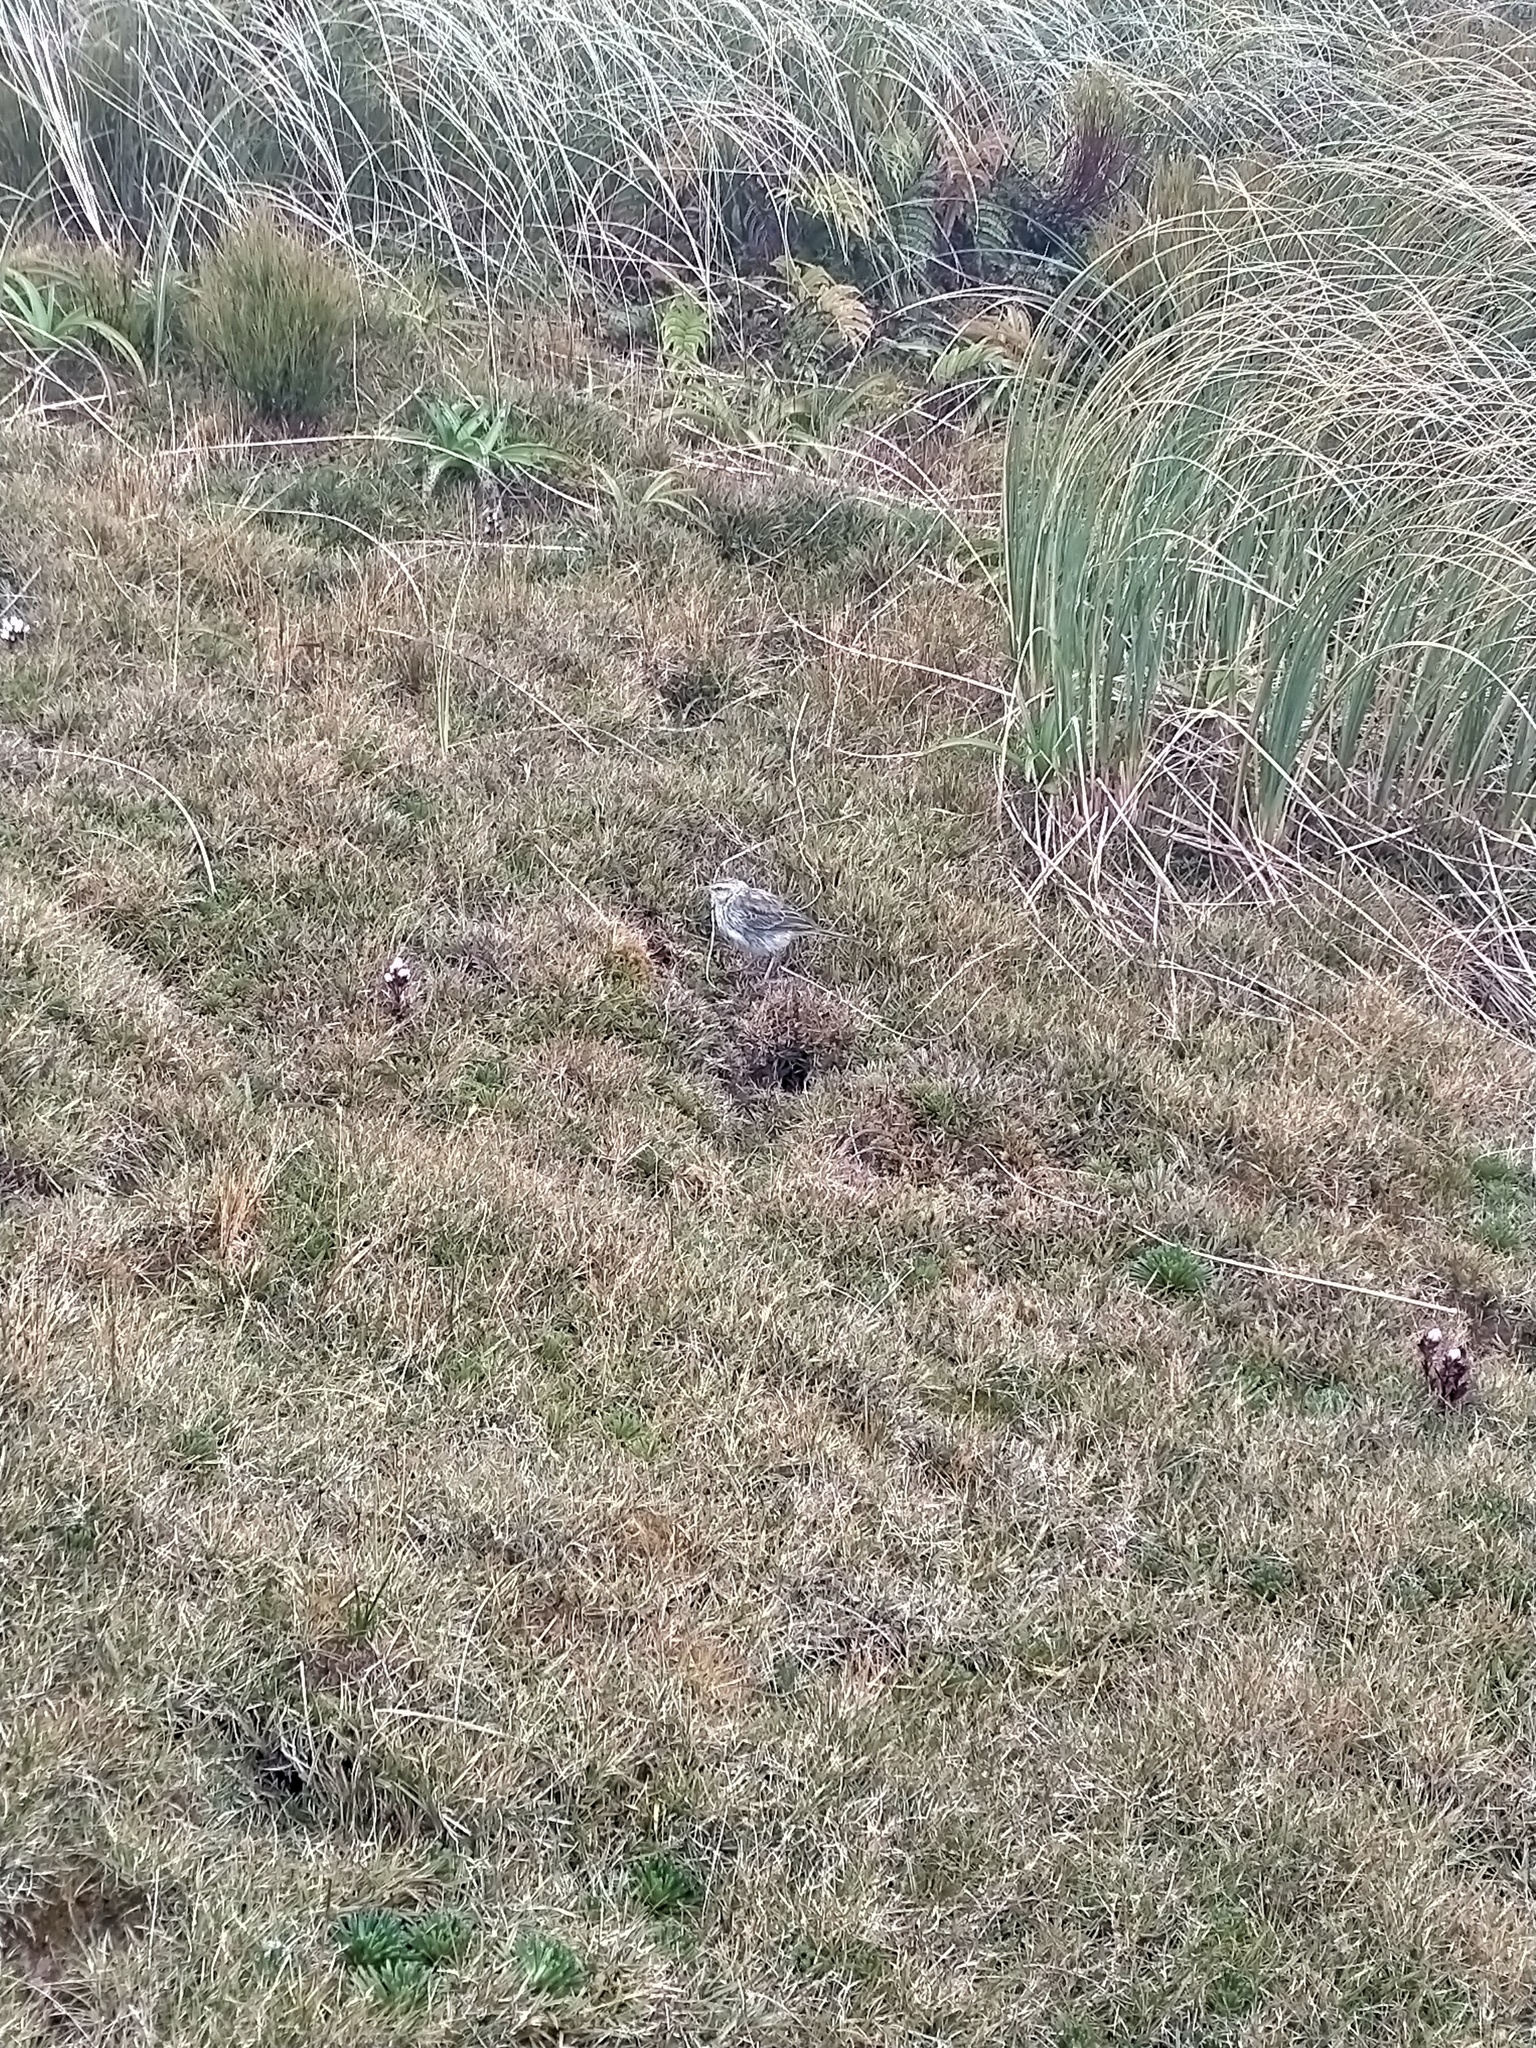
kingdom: Animalia
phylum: Chordata
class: Aves
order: Passeriformes
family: Motacillidae
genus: Anthus
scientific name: Anthus novaeseelandiae
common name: New zealand pipit
